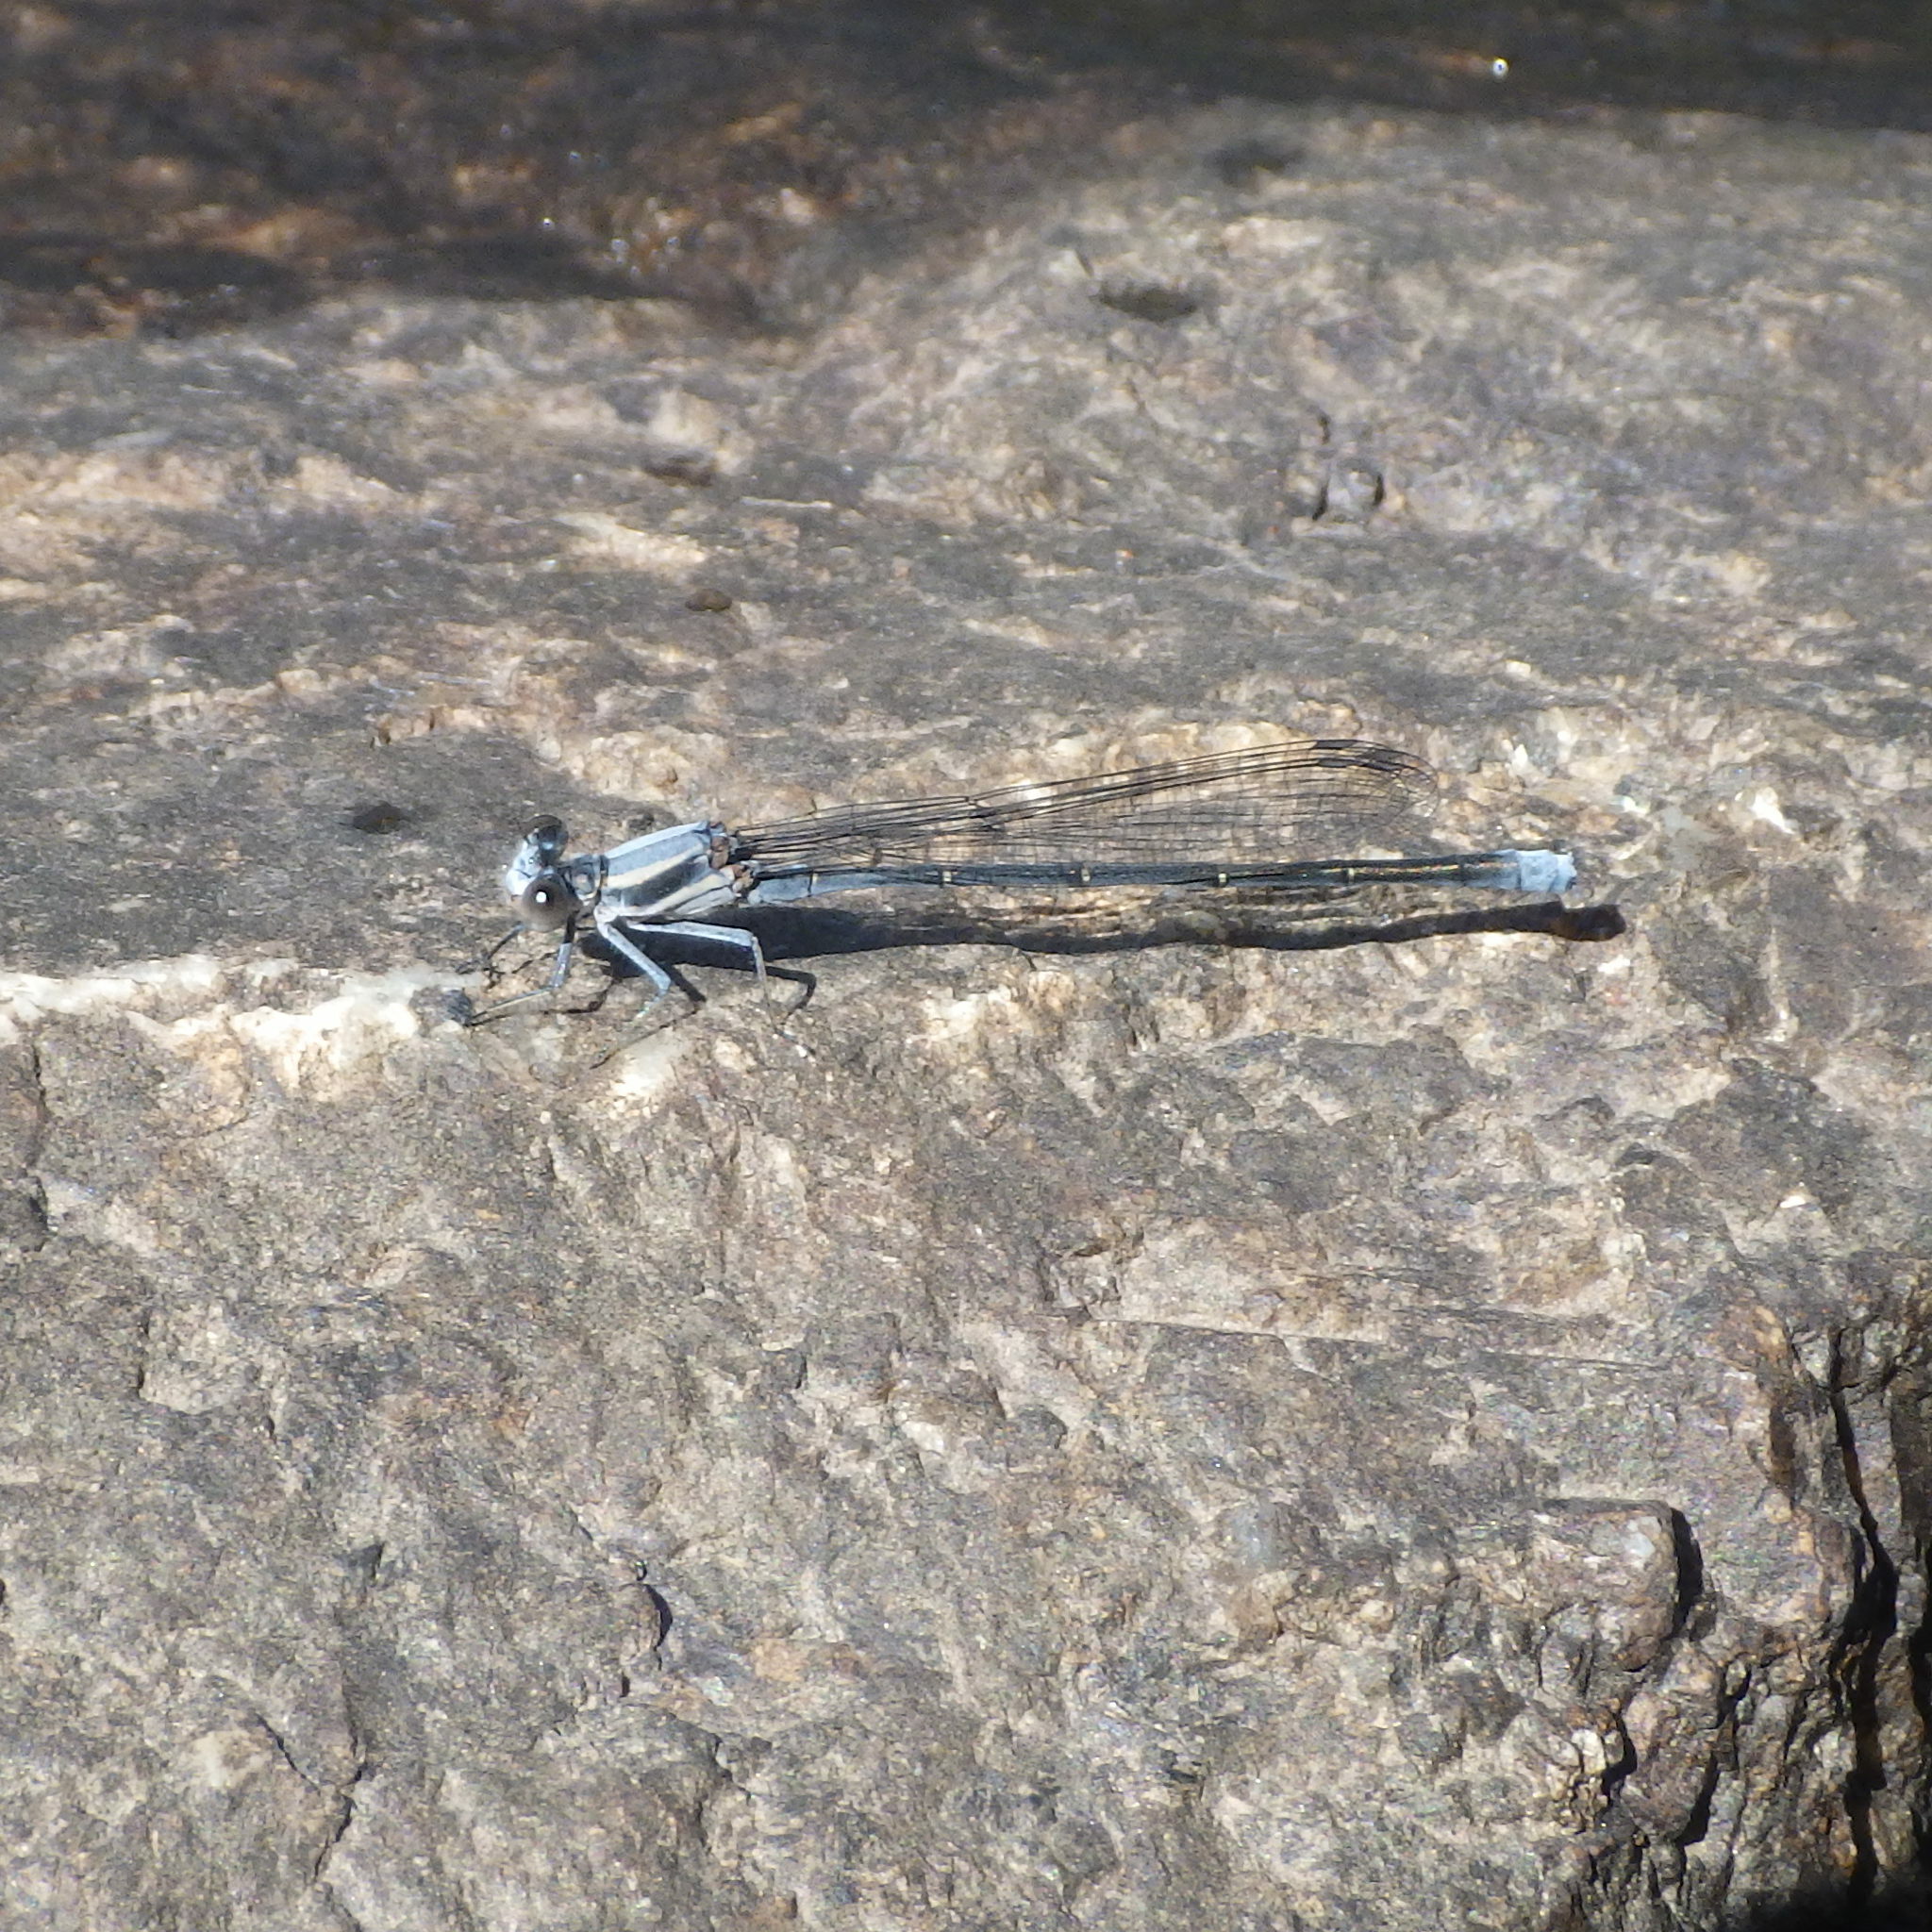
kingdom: Animalia
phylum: Arthropoda
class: Insecta
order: Odonata
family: Coenagrionidae
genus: Argia
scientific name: Argia moesta
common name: Powdered dancer
